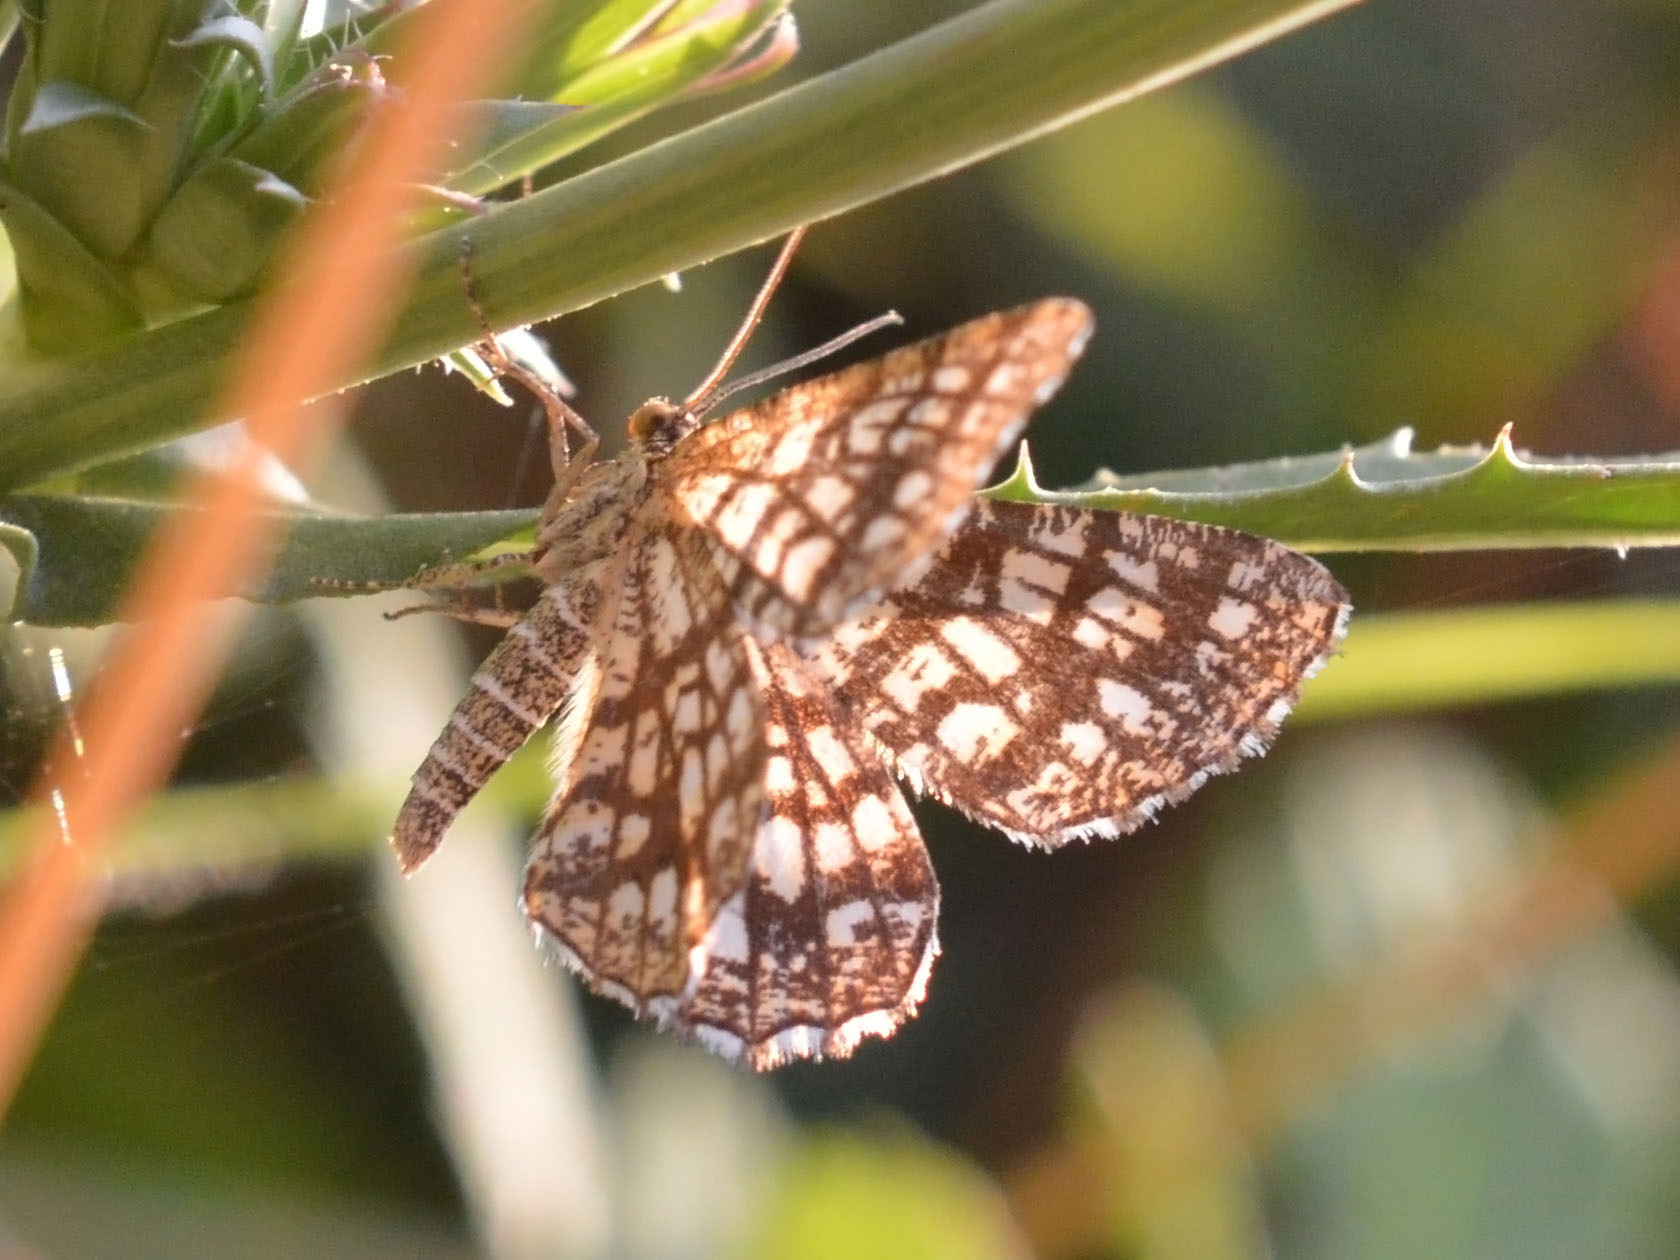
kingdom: Animalia
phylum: Arthropoda
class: Insecta
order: Lepidoptera
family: Geometridae
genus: Chiasmia
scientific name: Chiasmia clathrata
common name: Latticed heath
